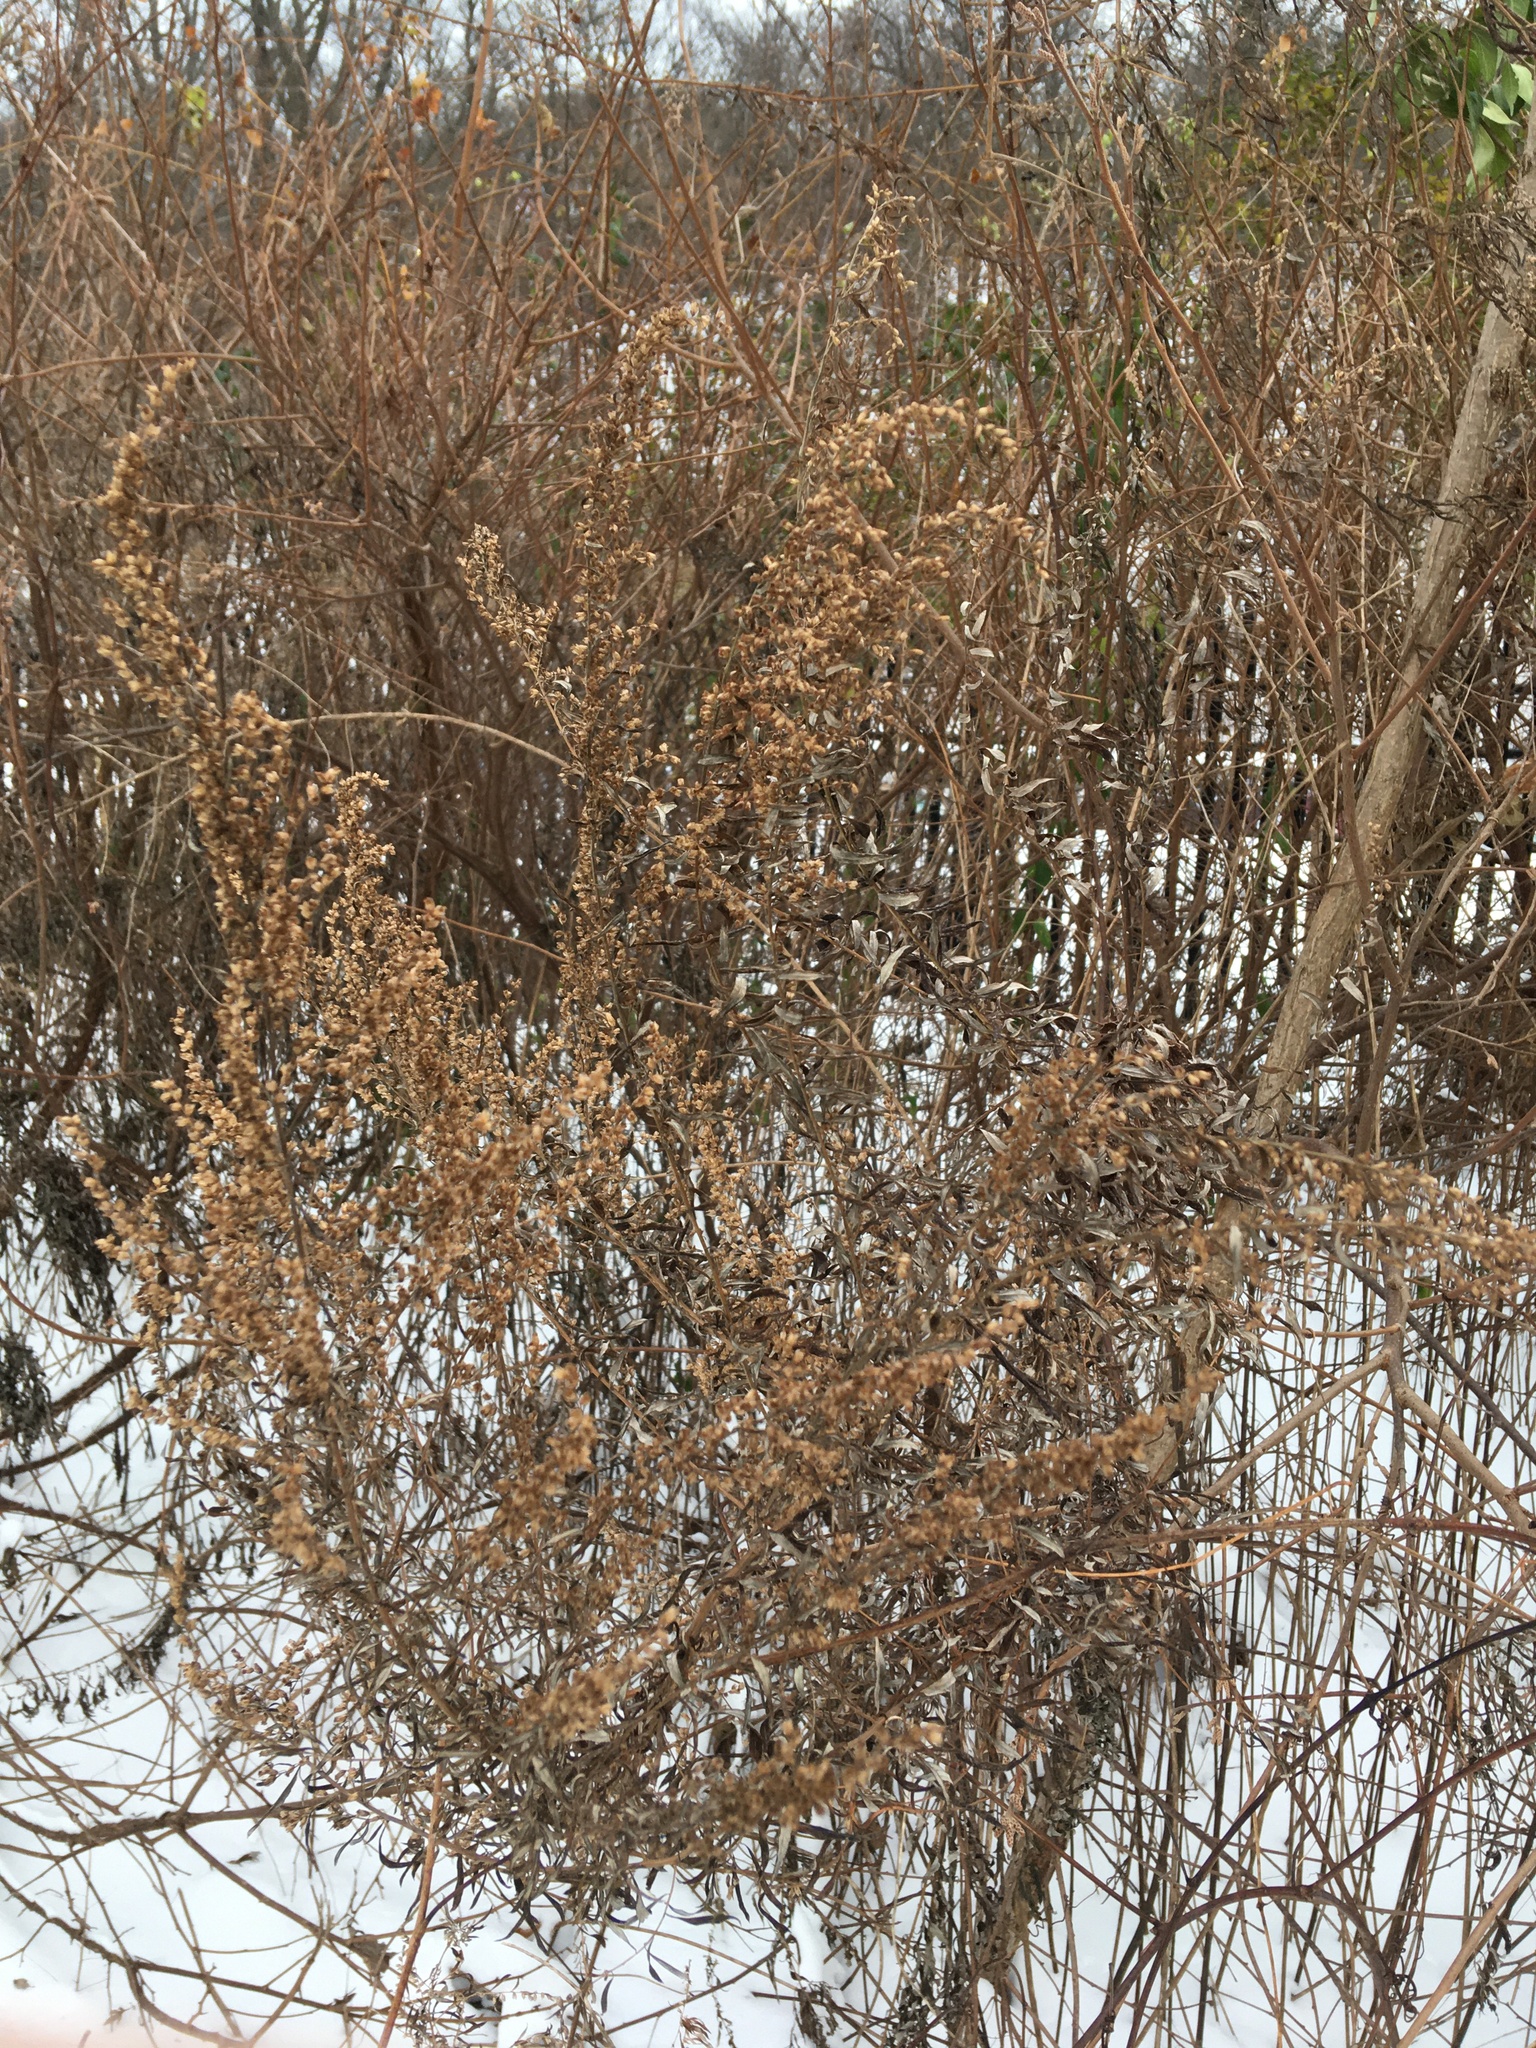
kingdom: Plantae
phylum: Tracheophyta
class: Magnoliopsida
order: Asterales
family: Asteraceae
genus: Artemisia
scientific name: Artemisia vulgaris
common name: Mugwort
